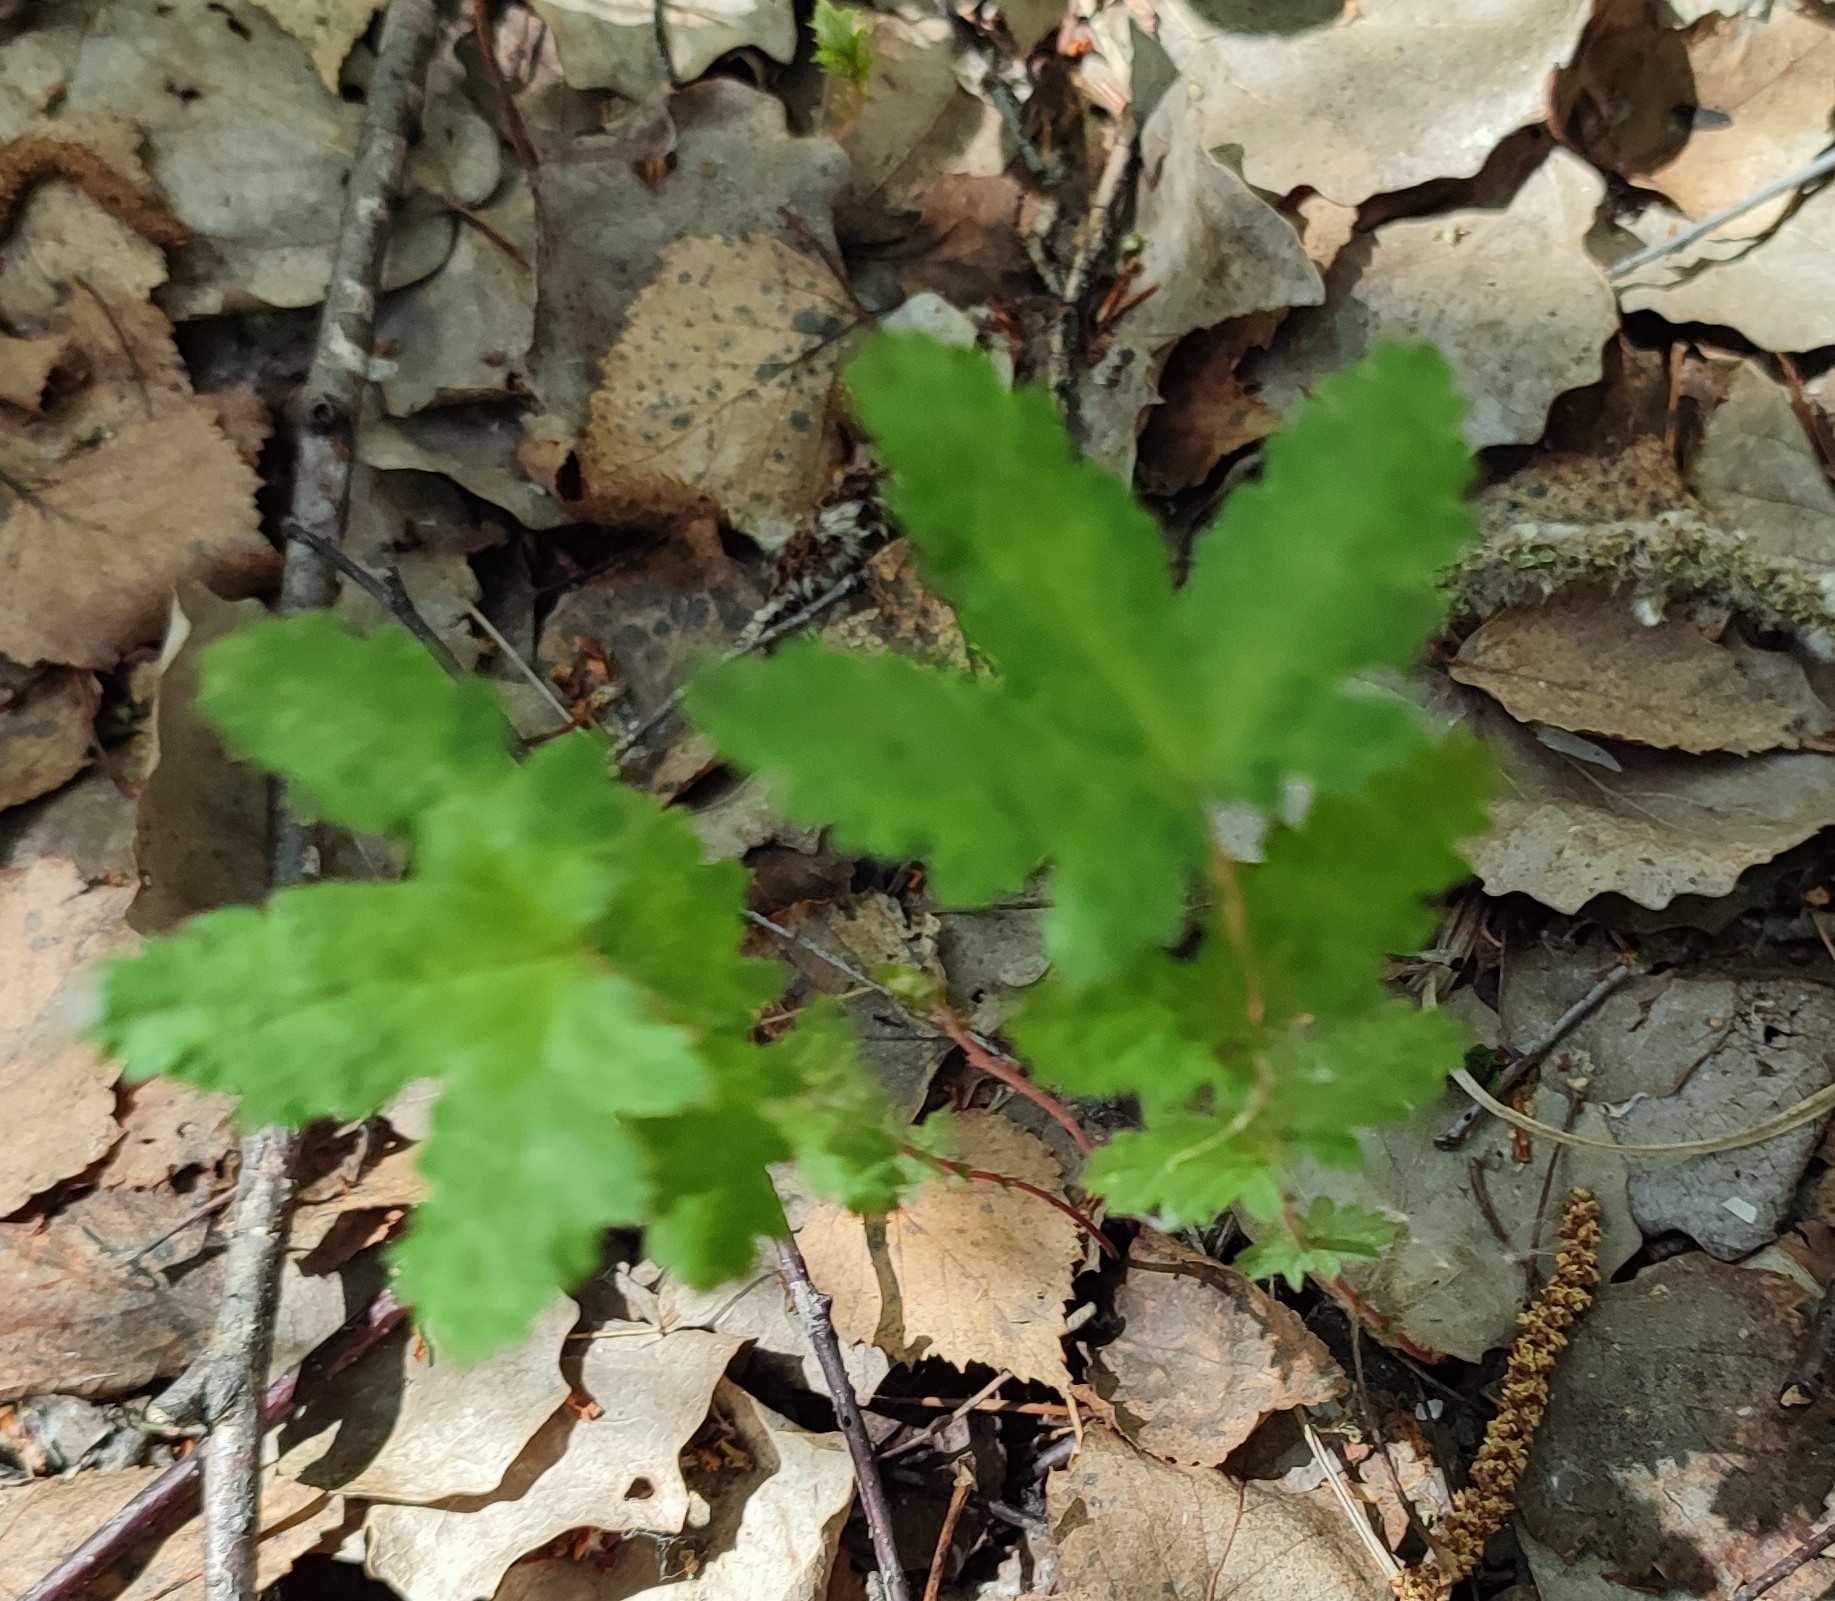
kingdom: Plantae
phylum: Tracheophyta
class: Magnoliopsida
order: Rosales
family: Rosaceae
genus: Filipendula
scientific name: Filipendula ulmaria
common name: Meadowsweet
